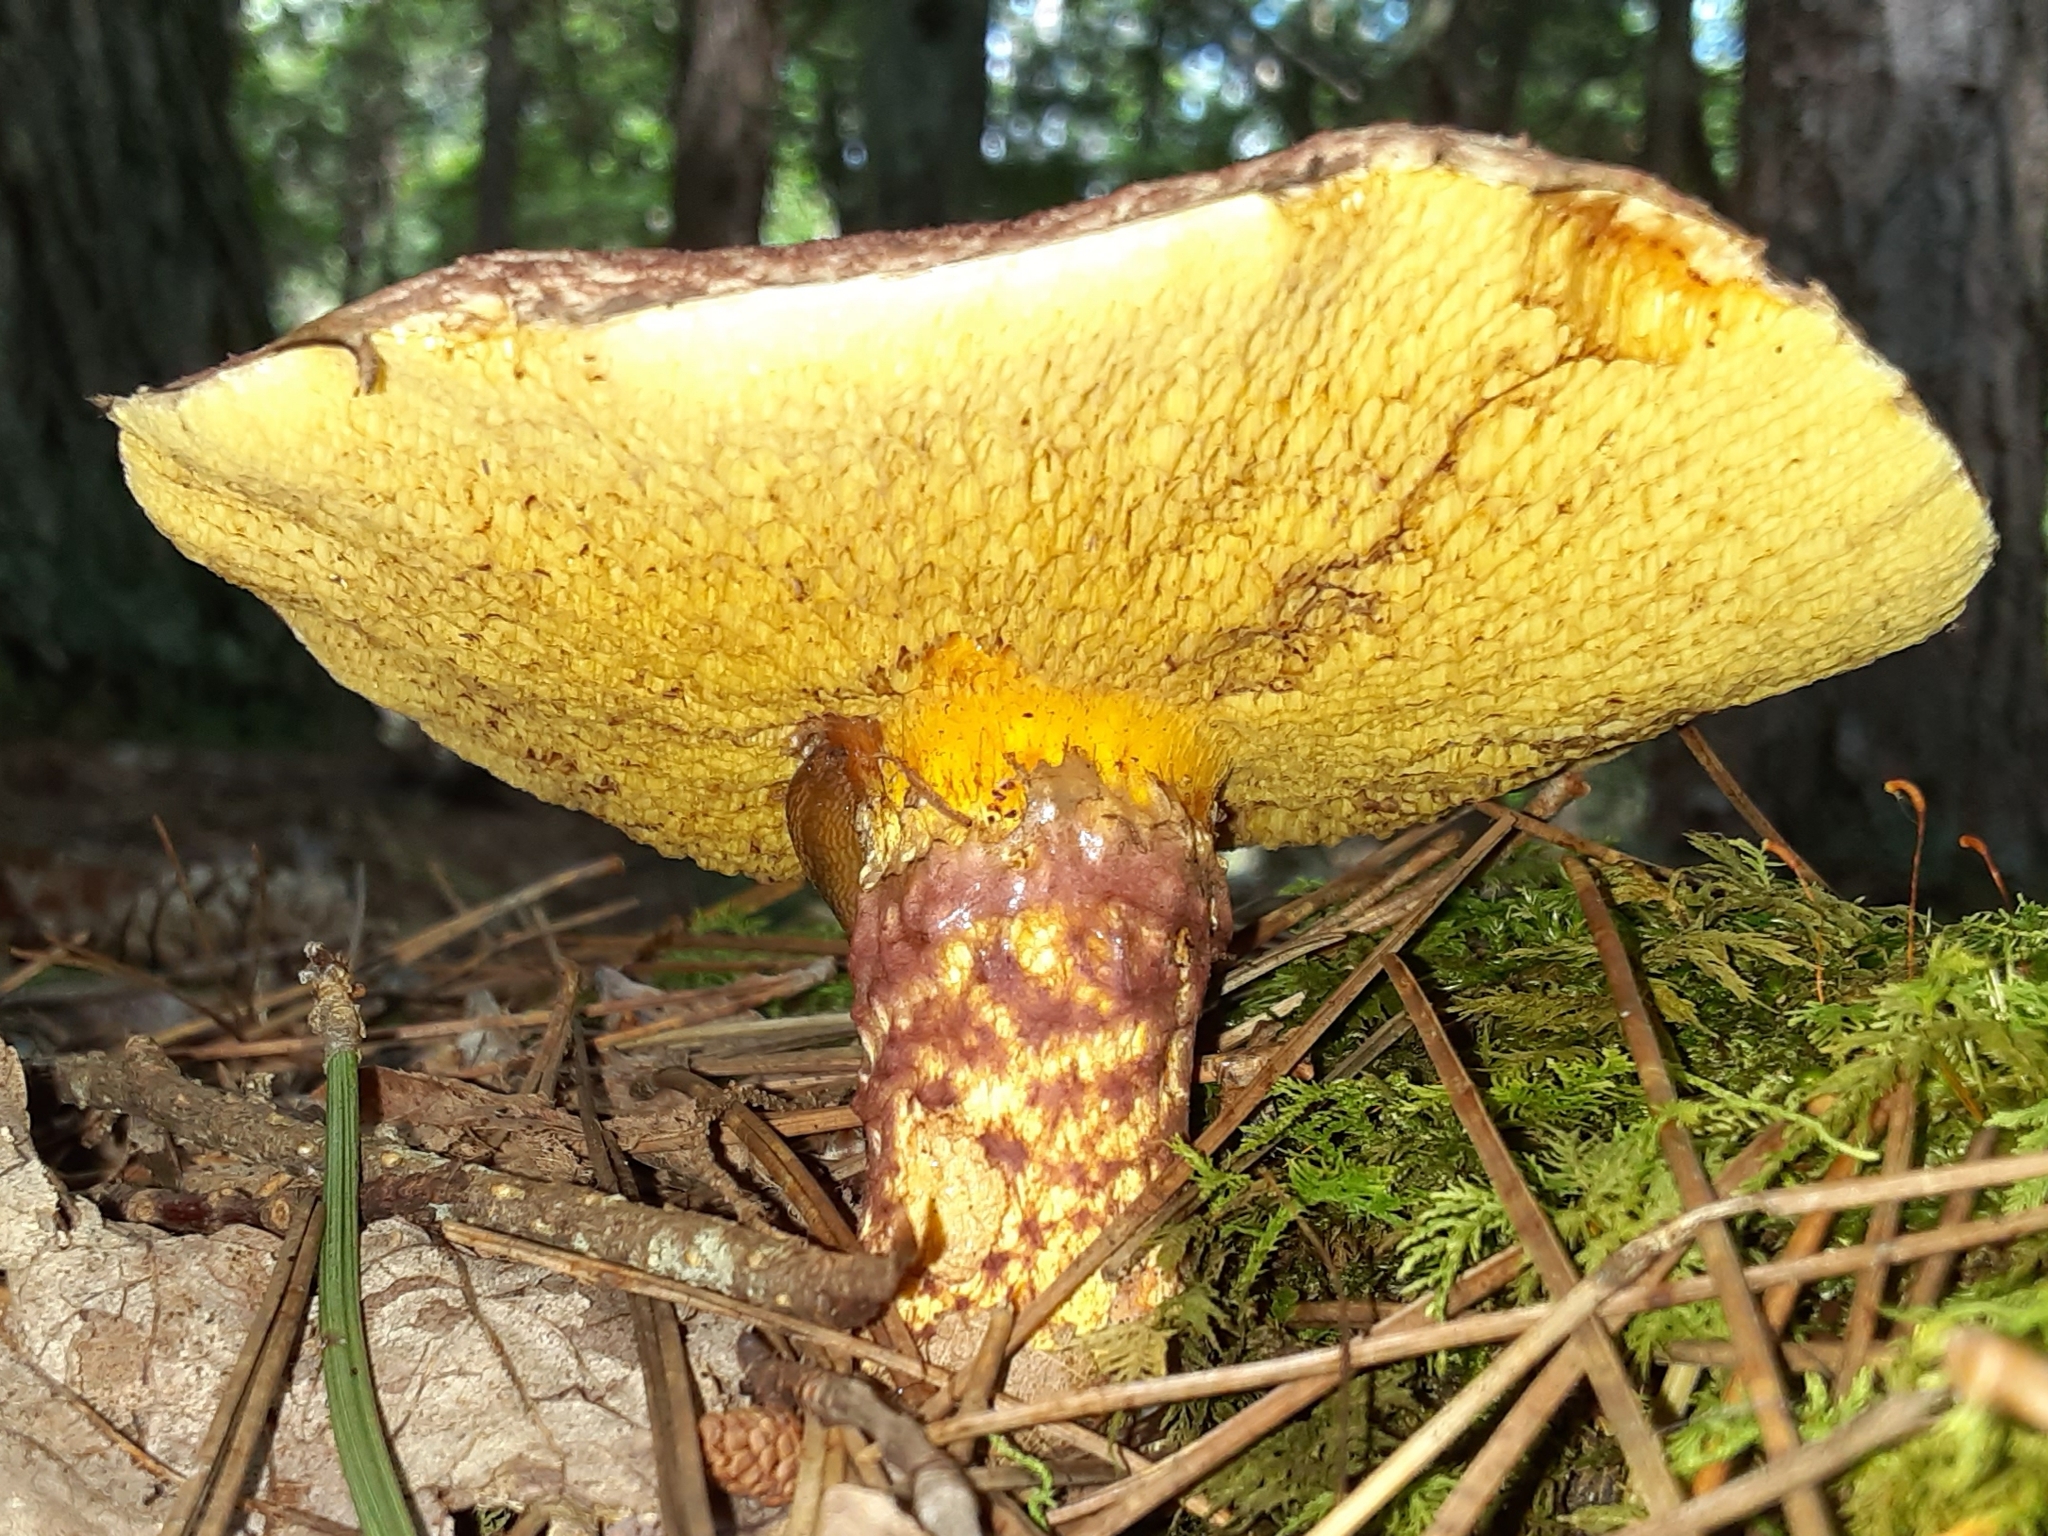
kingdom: Fungi
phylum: Basidiomycota
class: Agaricomycetes
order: Boletales
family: Suillaceae
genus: Suillus
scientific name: Suillus spraguei
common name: Painted suillus
